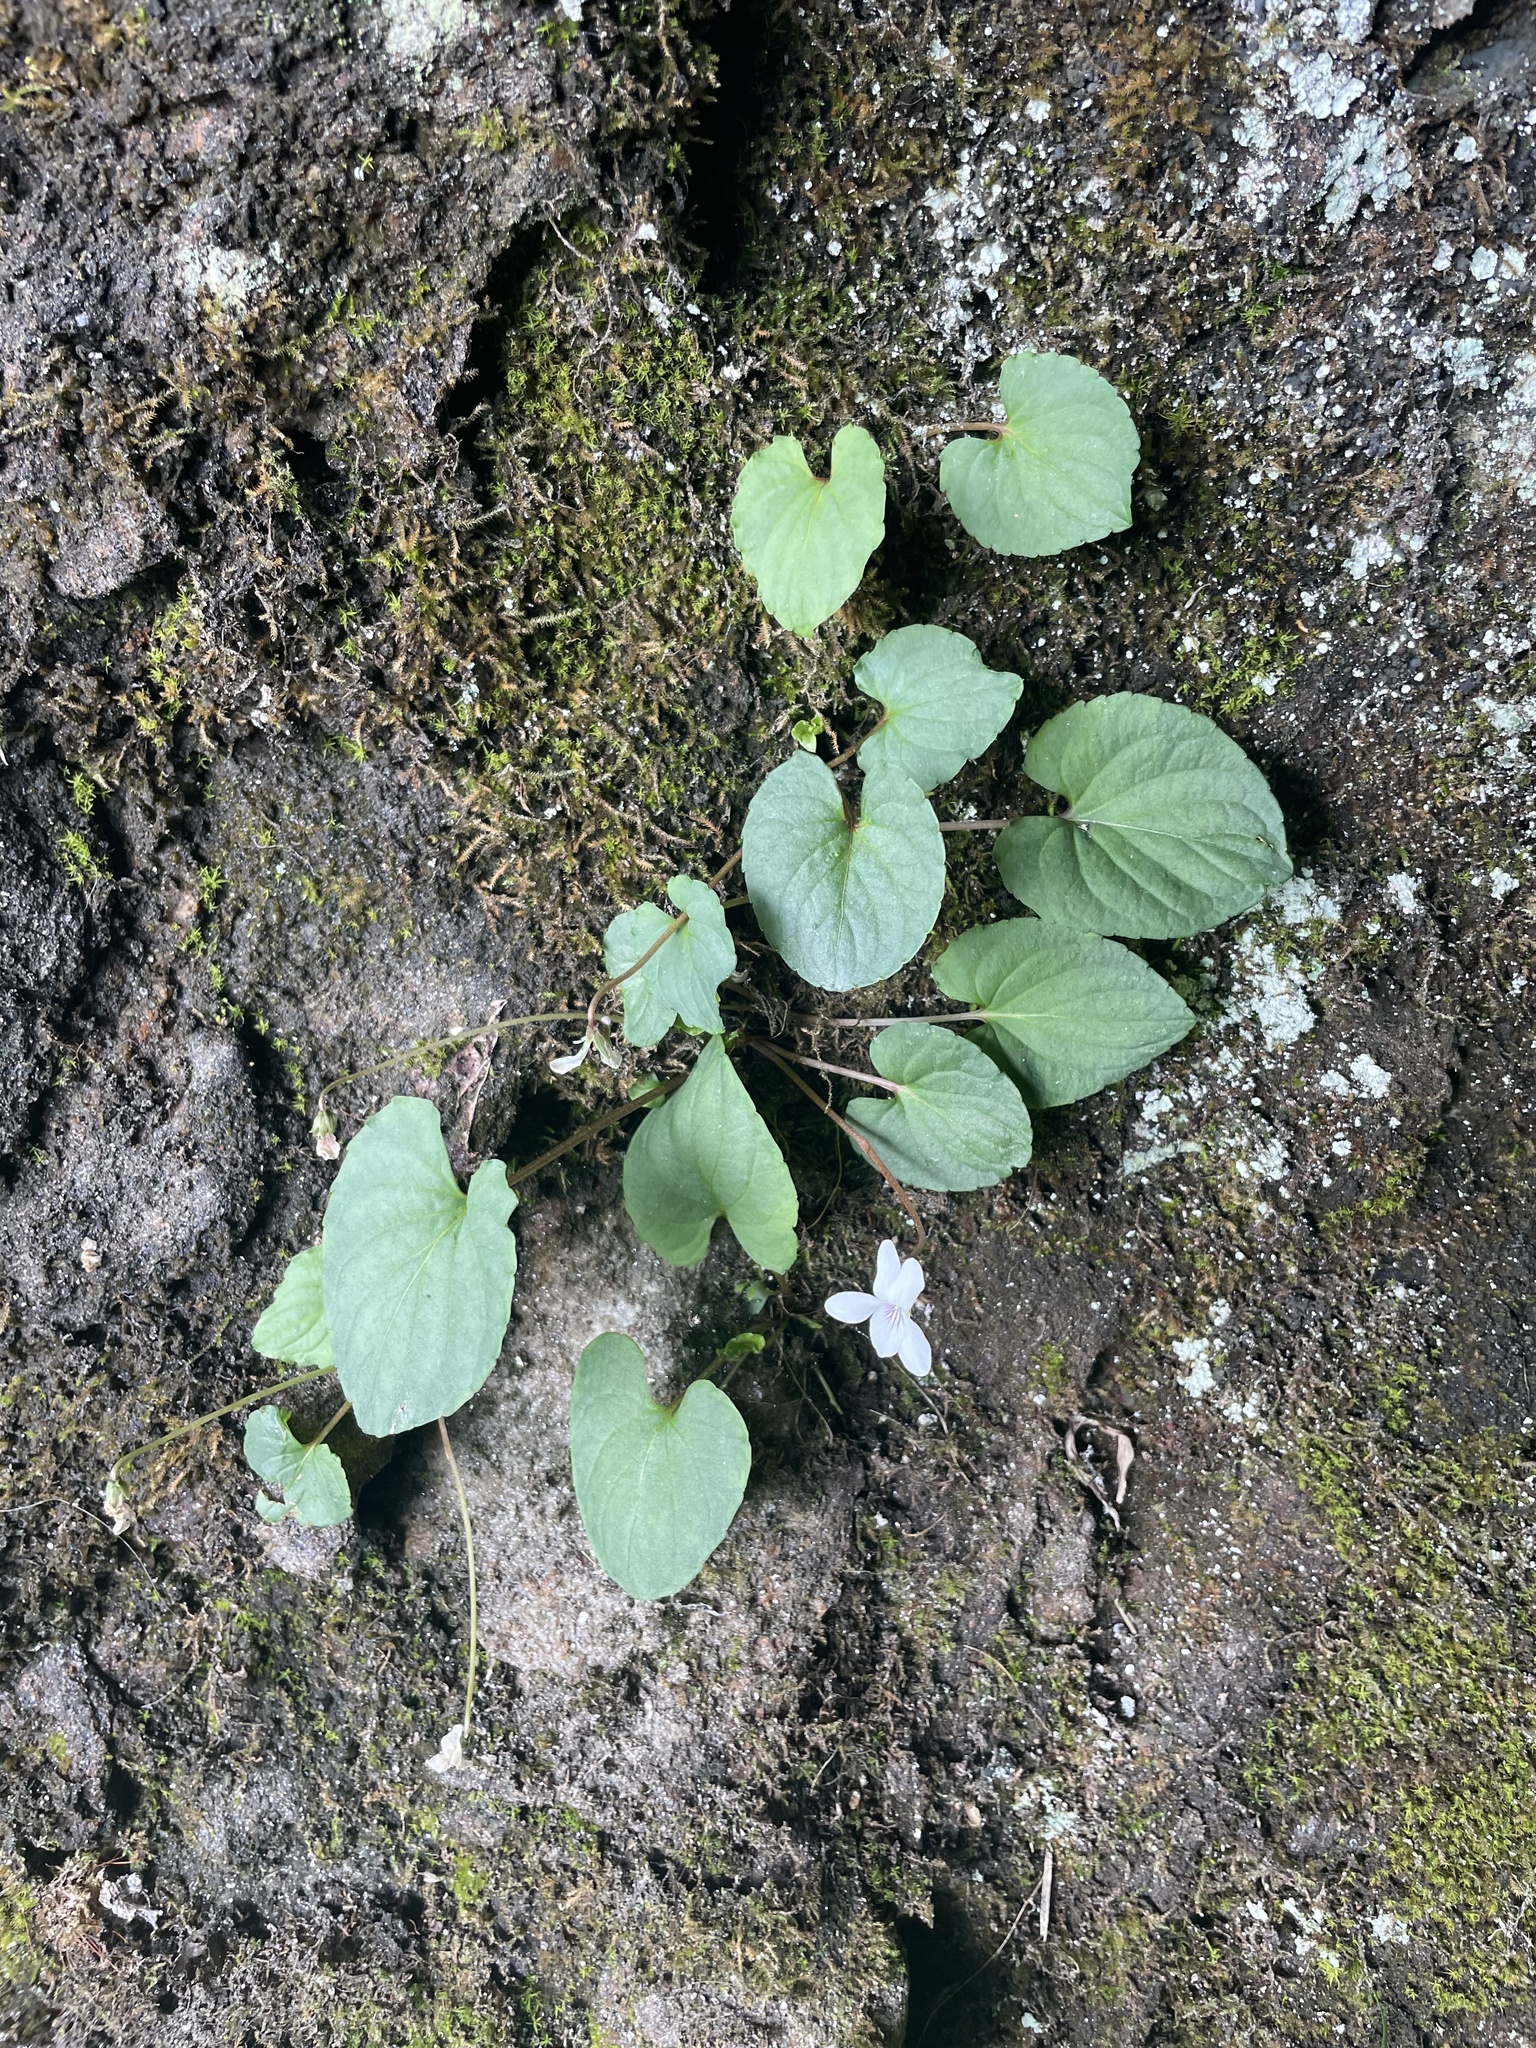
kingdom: Plantae
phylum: Tracheophyta
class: Magnoliopsida
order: Malpighiales
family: Violaceae
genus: Viola
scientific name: Viola blanda
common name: Sweet white violet
